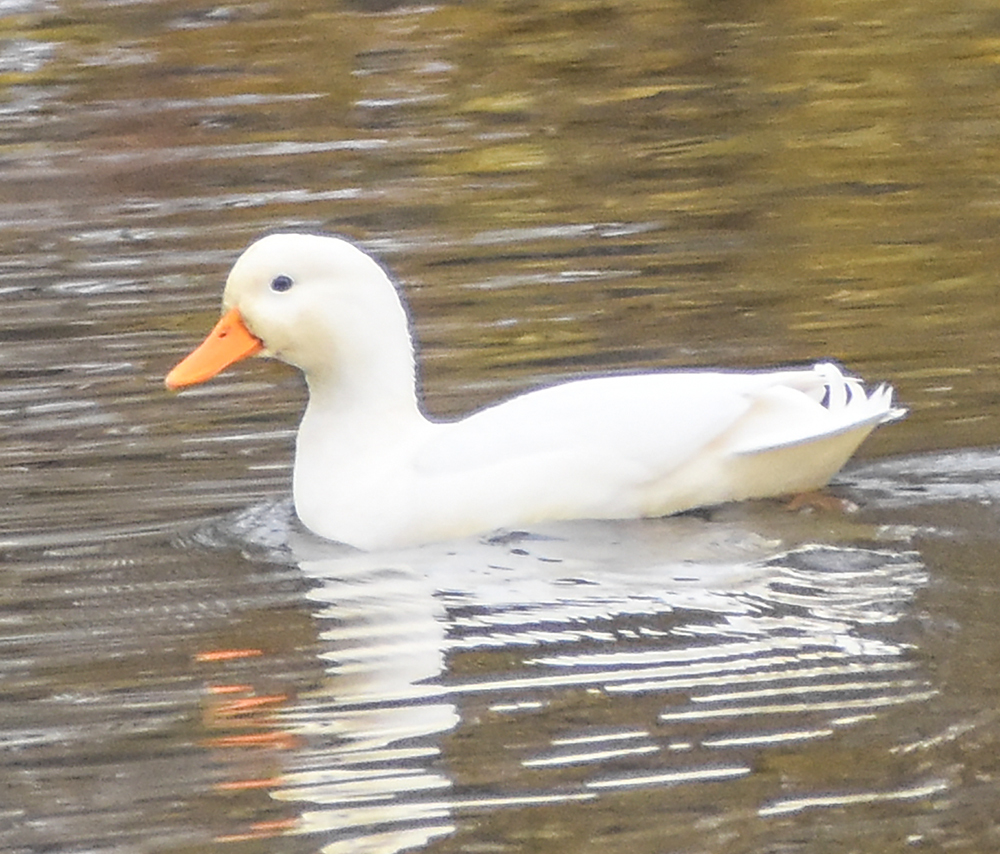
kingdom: Animalia
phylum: Chordata
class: Aves
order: Anseriformes
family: Anatidae
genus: Anas
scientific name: Anas platyrhynchos
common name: Mallard
